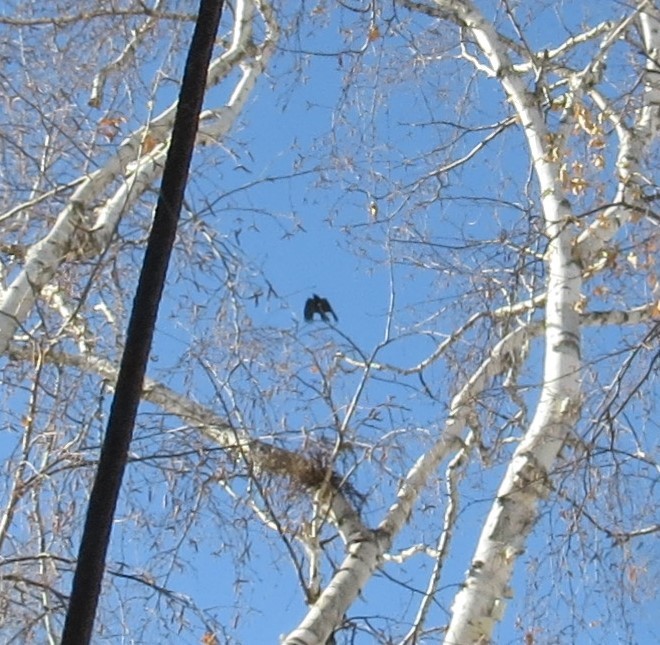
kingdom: Animalia
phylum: Chordata
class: Aves
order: Passeriformes
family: Corvidae
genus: Corvus
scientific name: Corvus brachyrhynchos
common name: American crow
